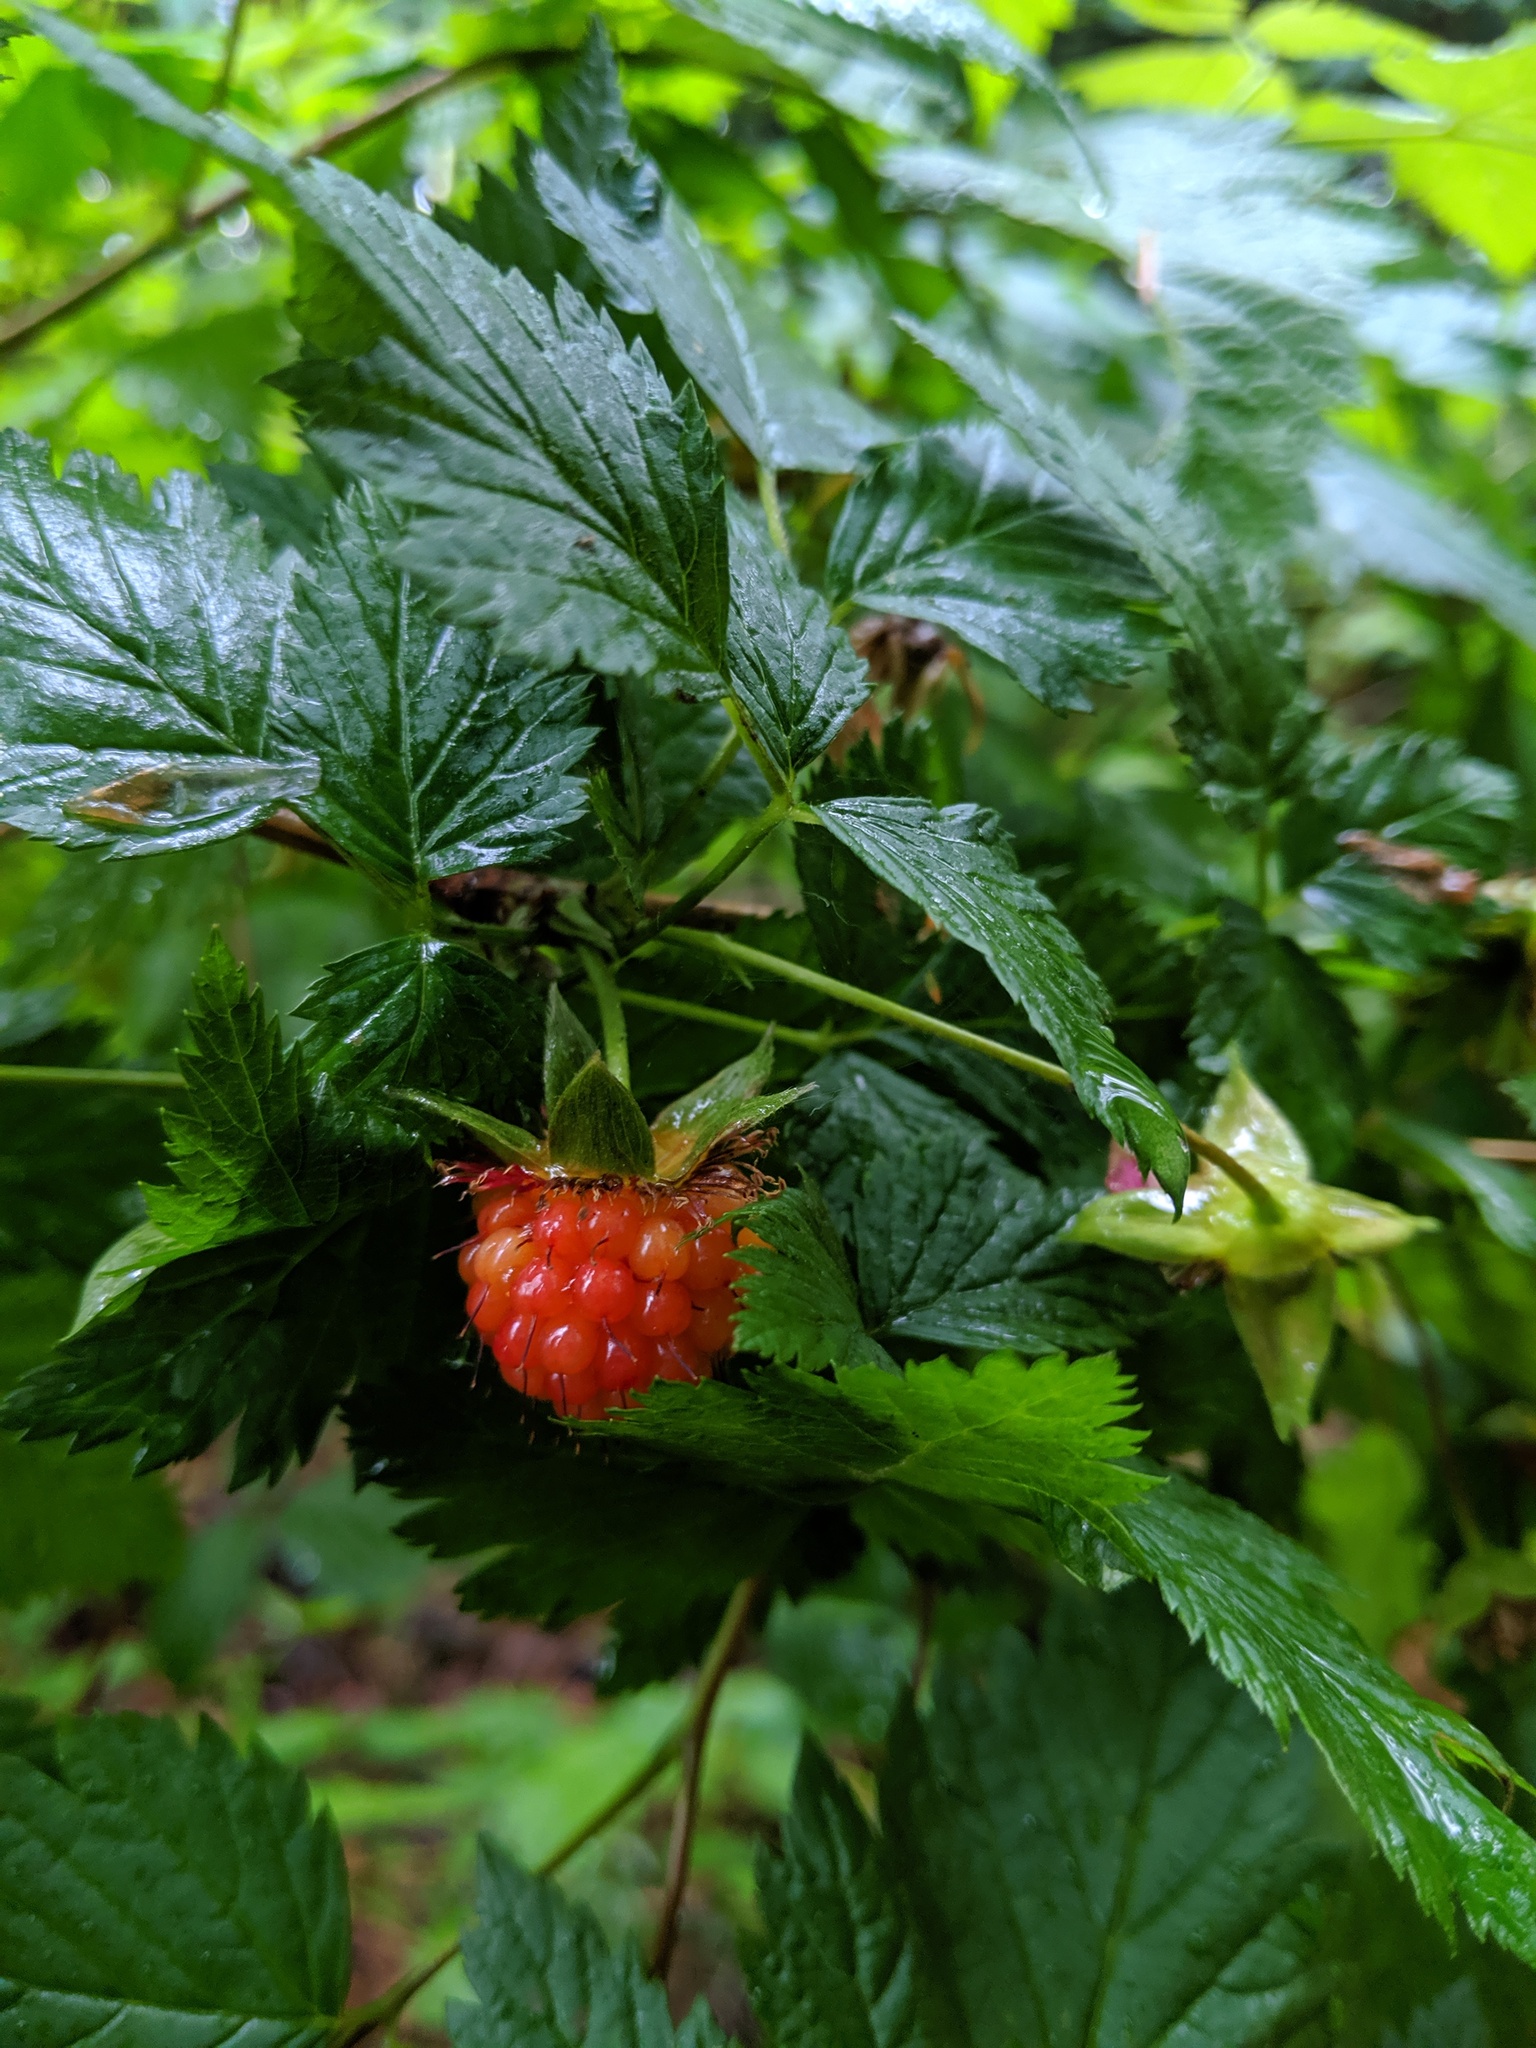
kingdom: Plantae
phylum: Tracheophyta
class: Magnoliopsida
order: Rosales
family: Rosaceae
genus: Rubus
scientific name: Rubus spectabilis
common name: Salmonberry
